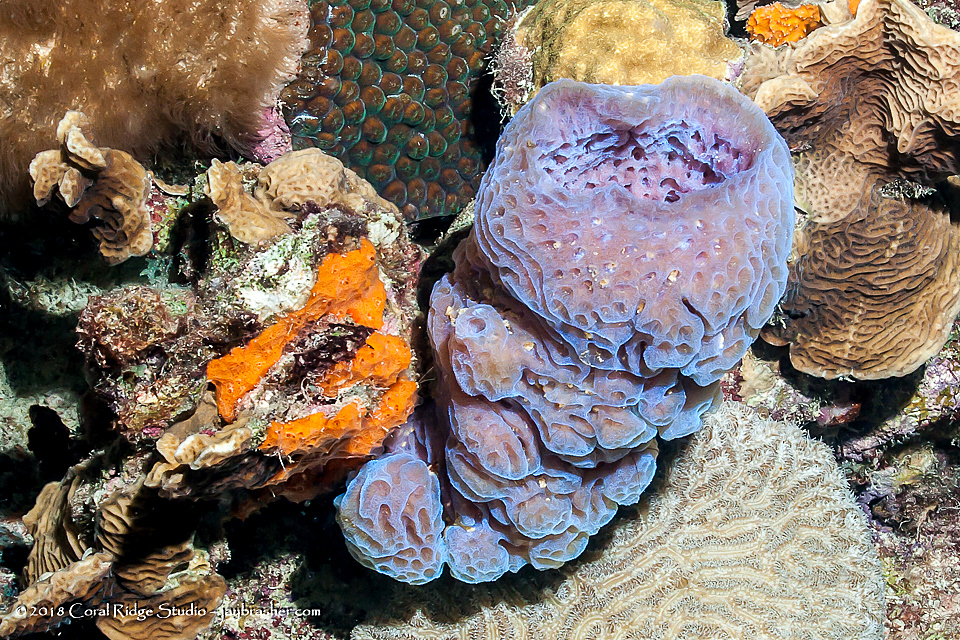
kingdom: Animalia
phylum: Porifera
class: Demospongiae
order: Haplosclerida
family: Callyspongiidae
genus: Callyspongia
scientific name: Callyspongia plicifera
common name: Azure vase sponge
